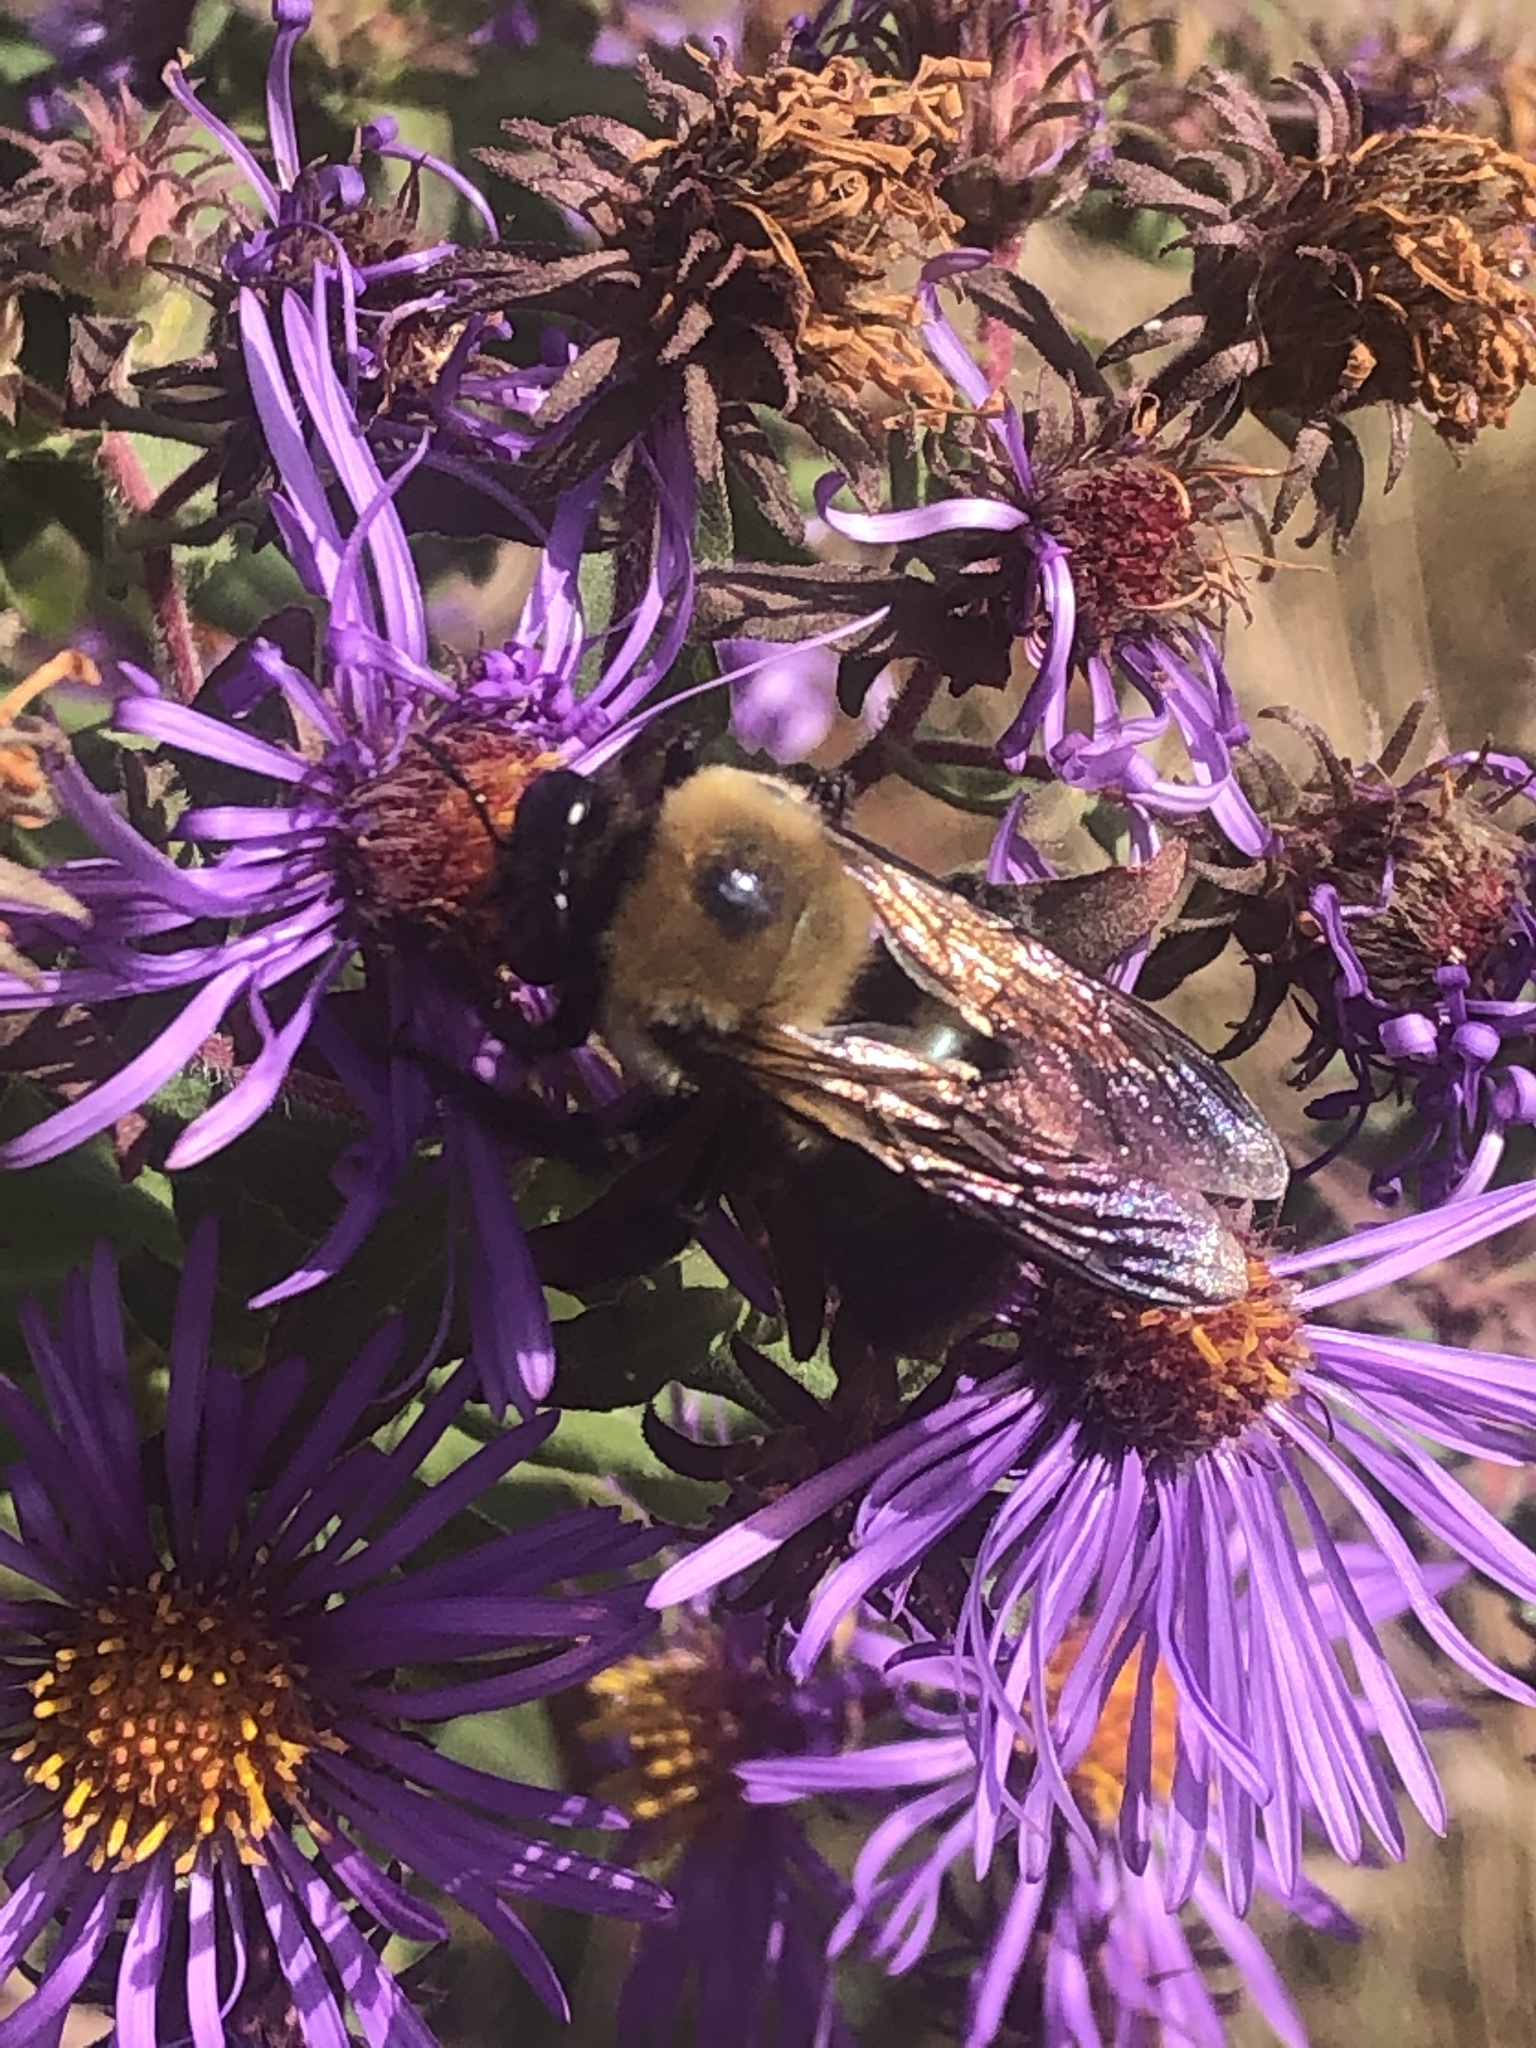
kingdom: Animalia
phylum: Arthropoda
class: Insecta
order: Hymenoptera
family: Apidae
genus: Xylocopa
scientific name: Xylocopa virginica
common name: Carpenter bee
